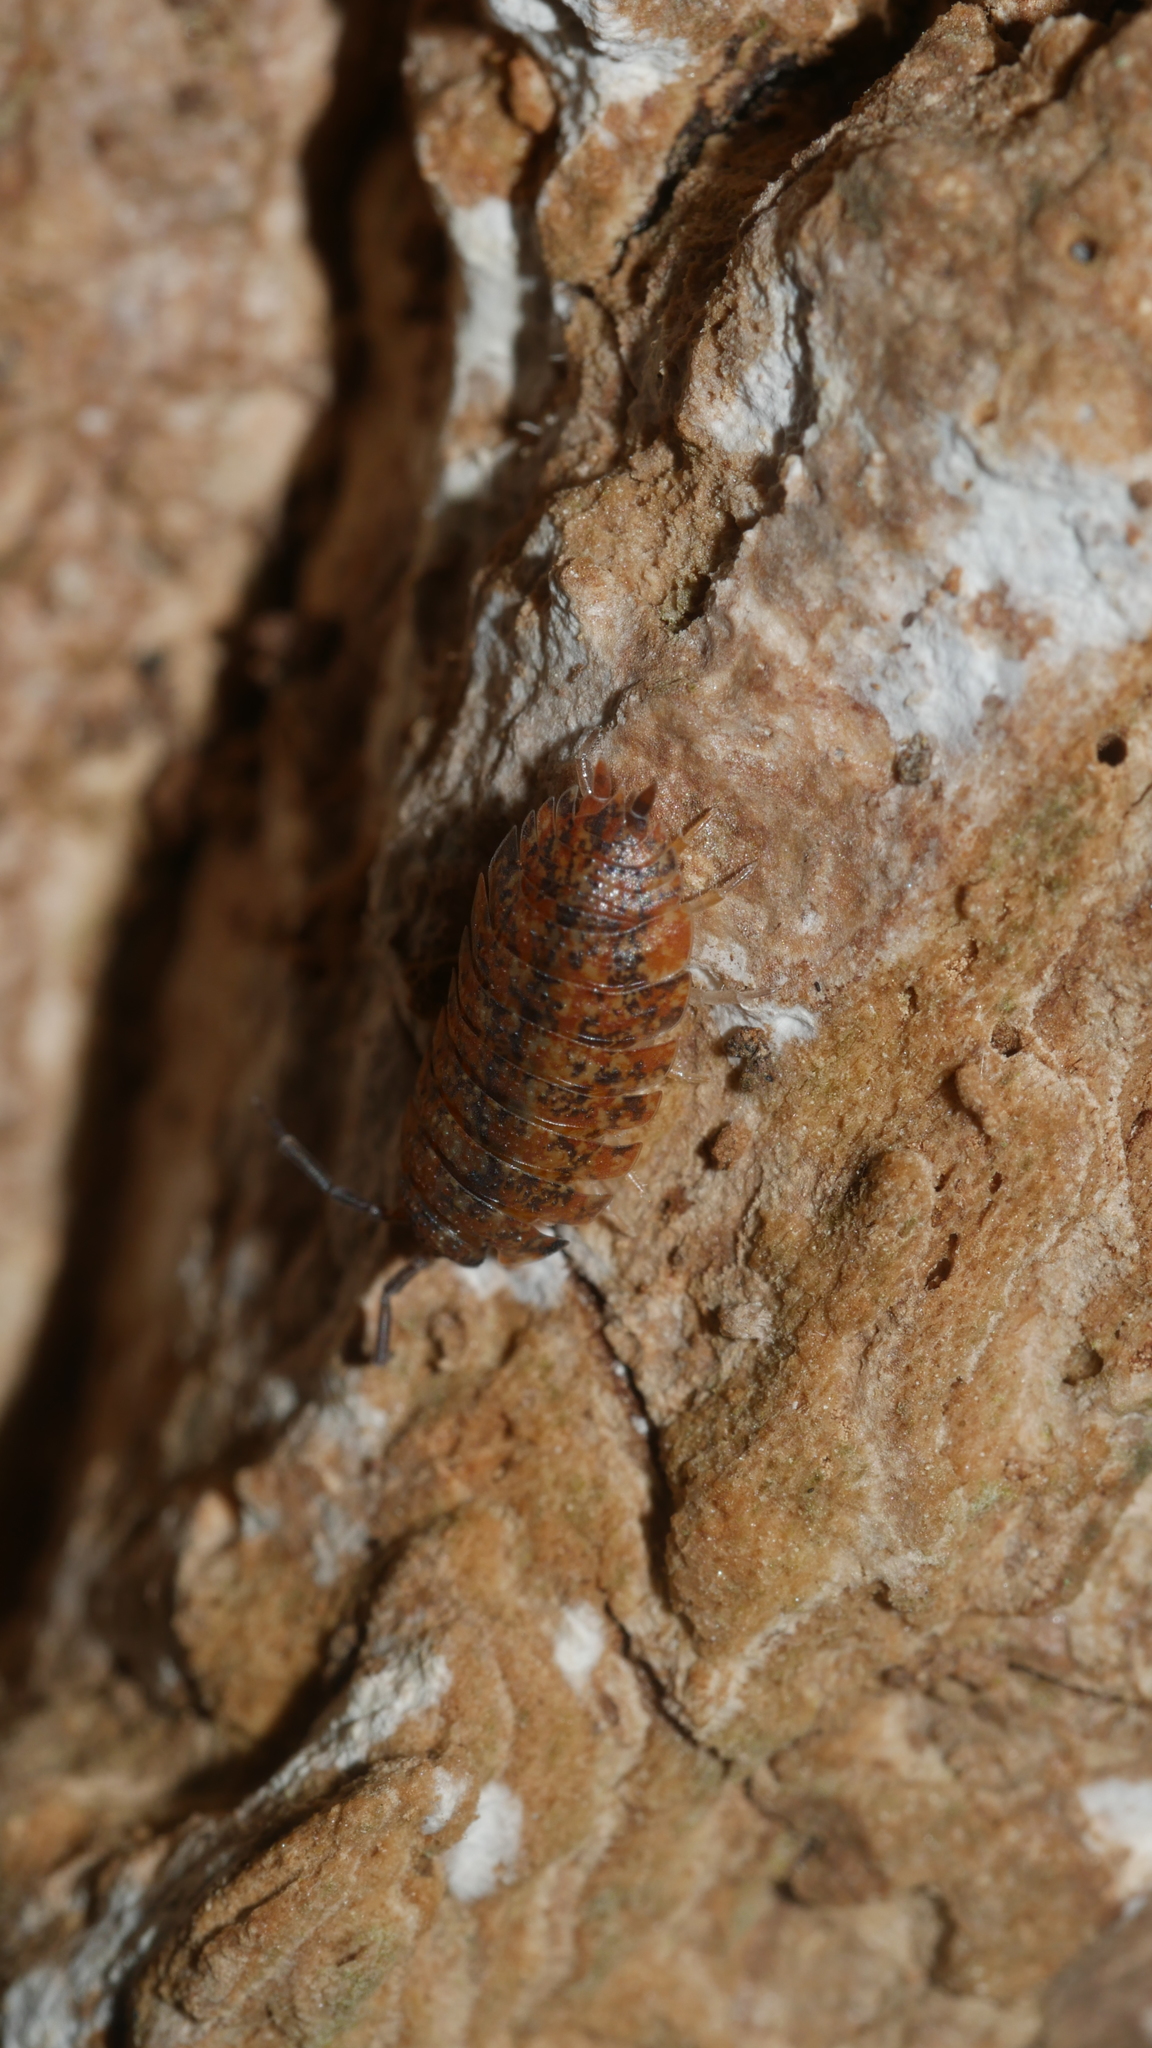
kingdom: Animalia
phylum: Arthropoda
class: Malacostraca
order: Isopoda
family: Porcellionidae
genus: Porcellio
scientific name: Porcellio scaber
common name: Common rough woodlouse
